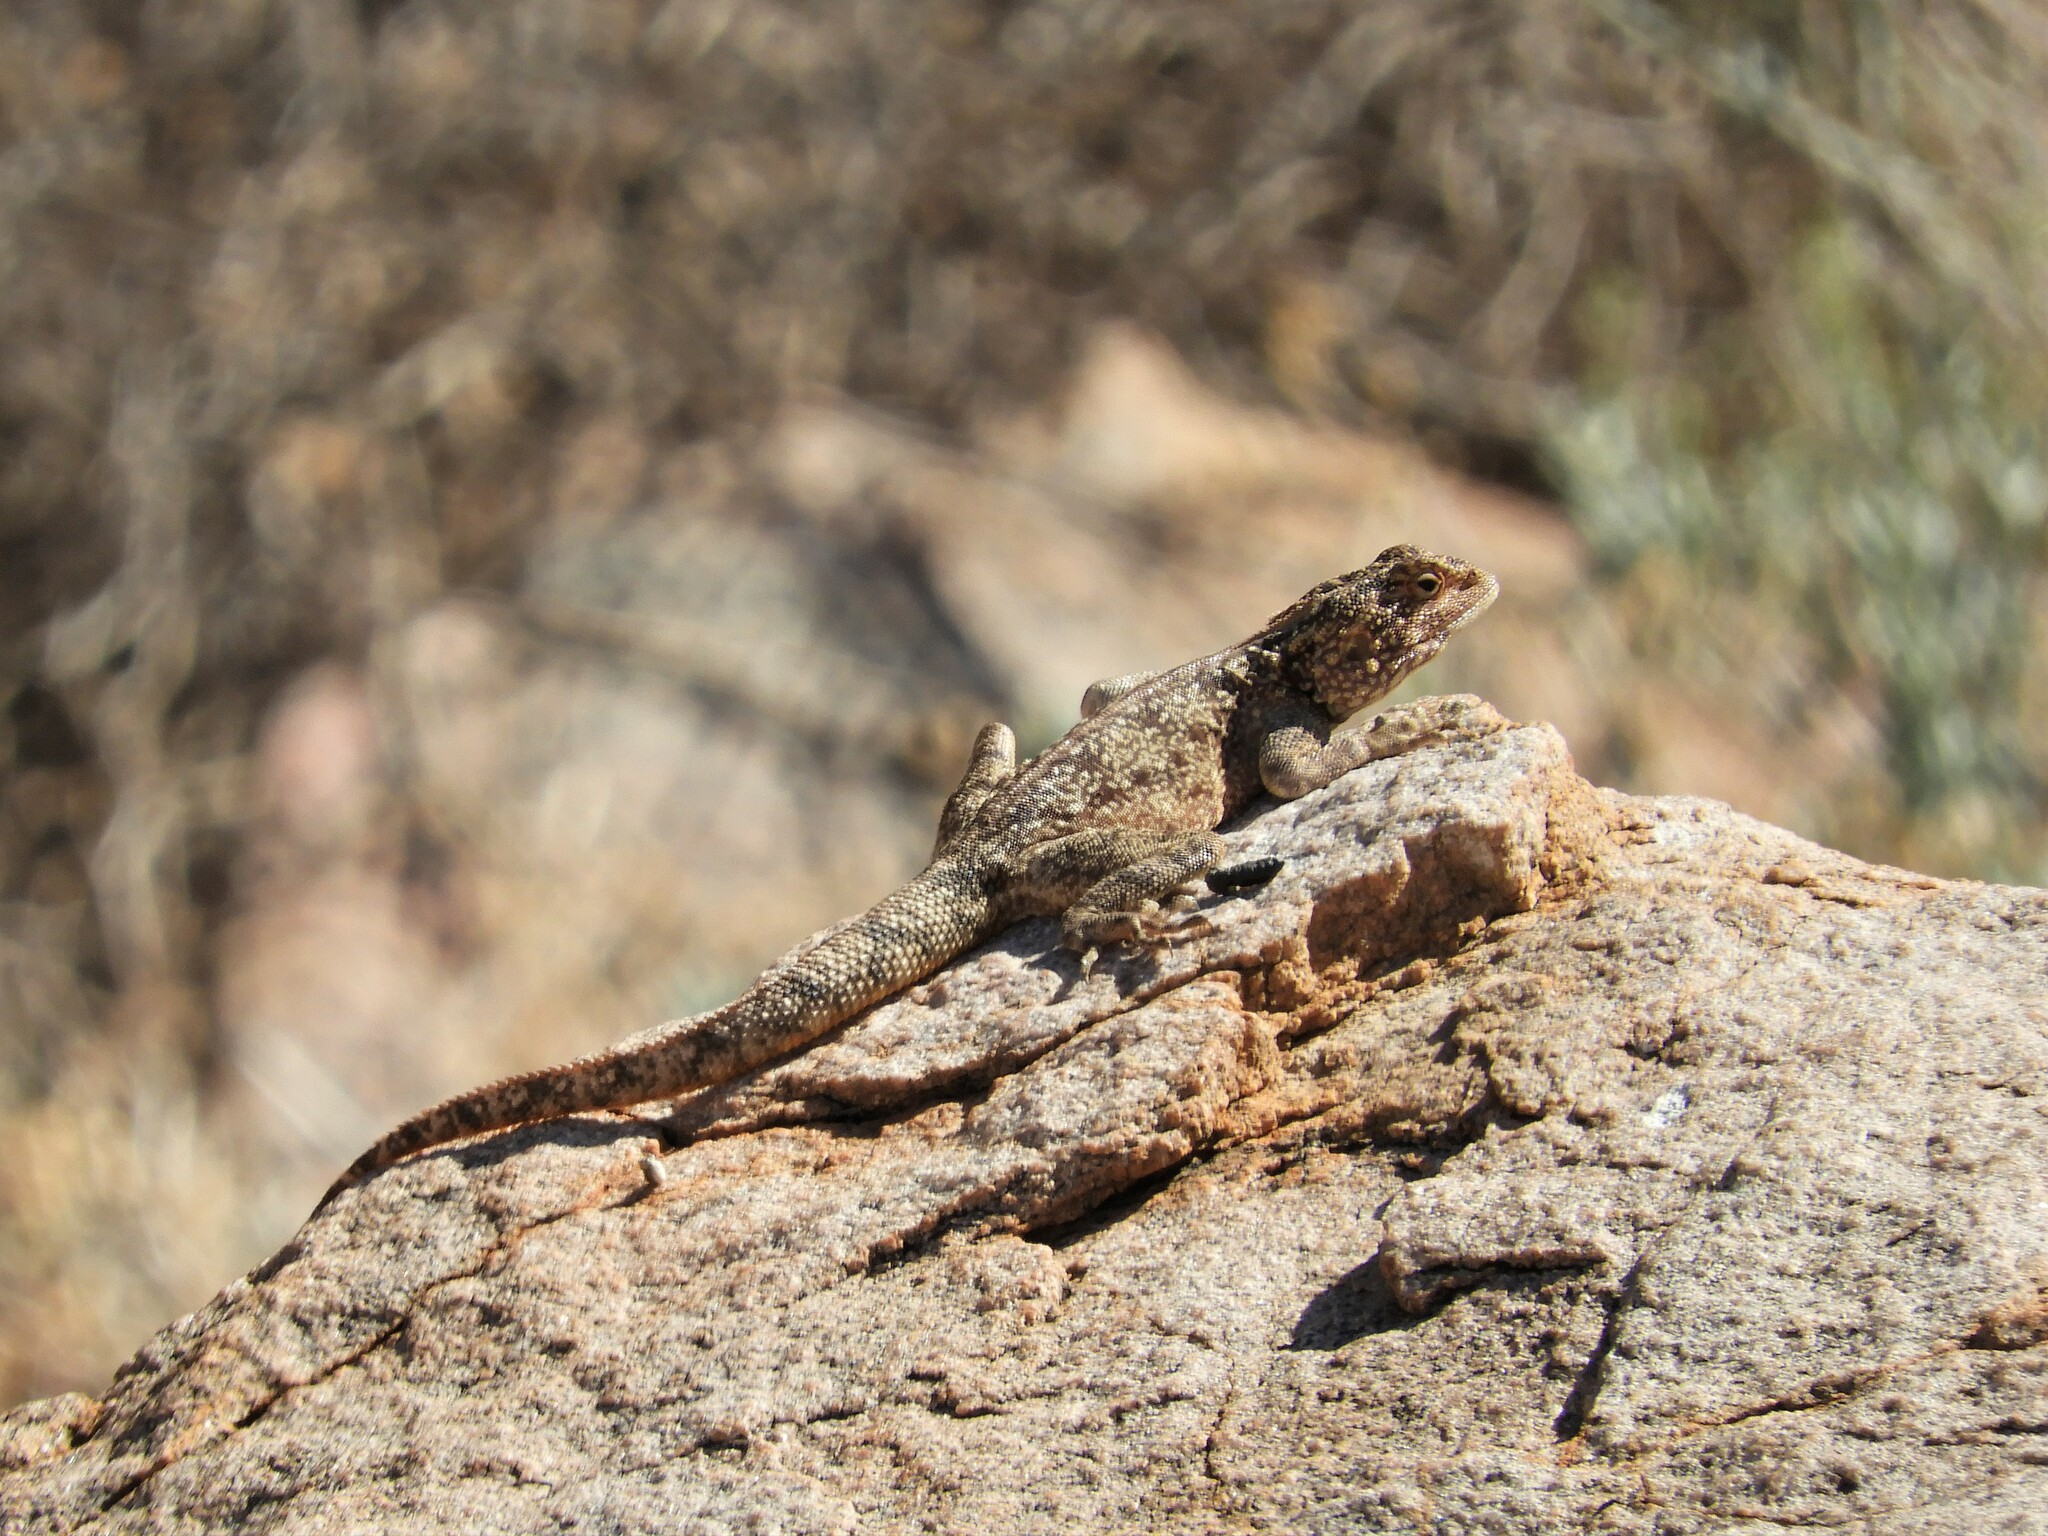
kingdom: Animalia
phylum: Chordata
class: Squamata
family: Agamidae
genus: Agama
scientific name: Agama atra
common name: Southern african rock agama
